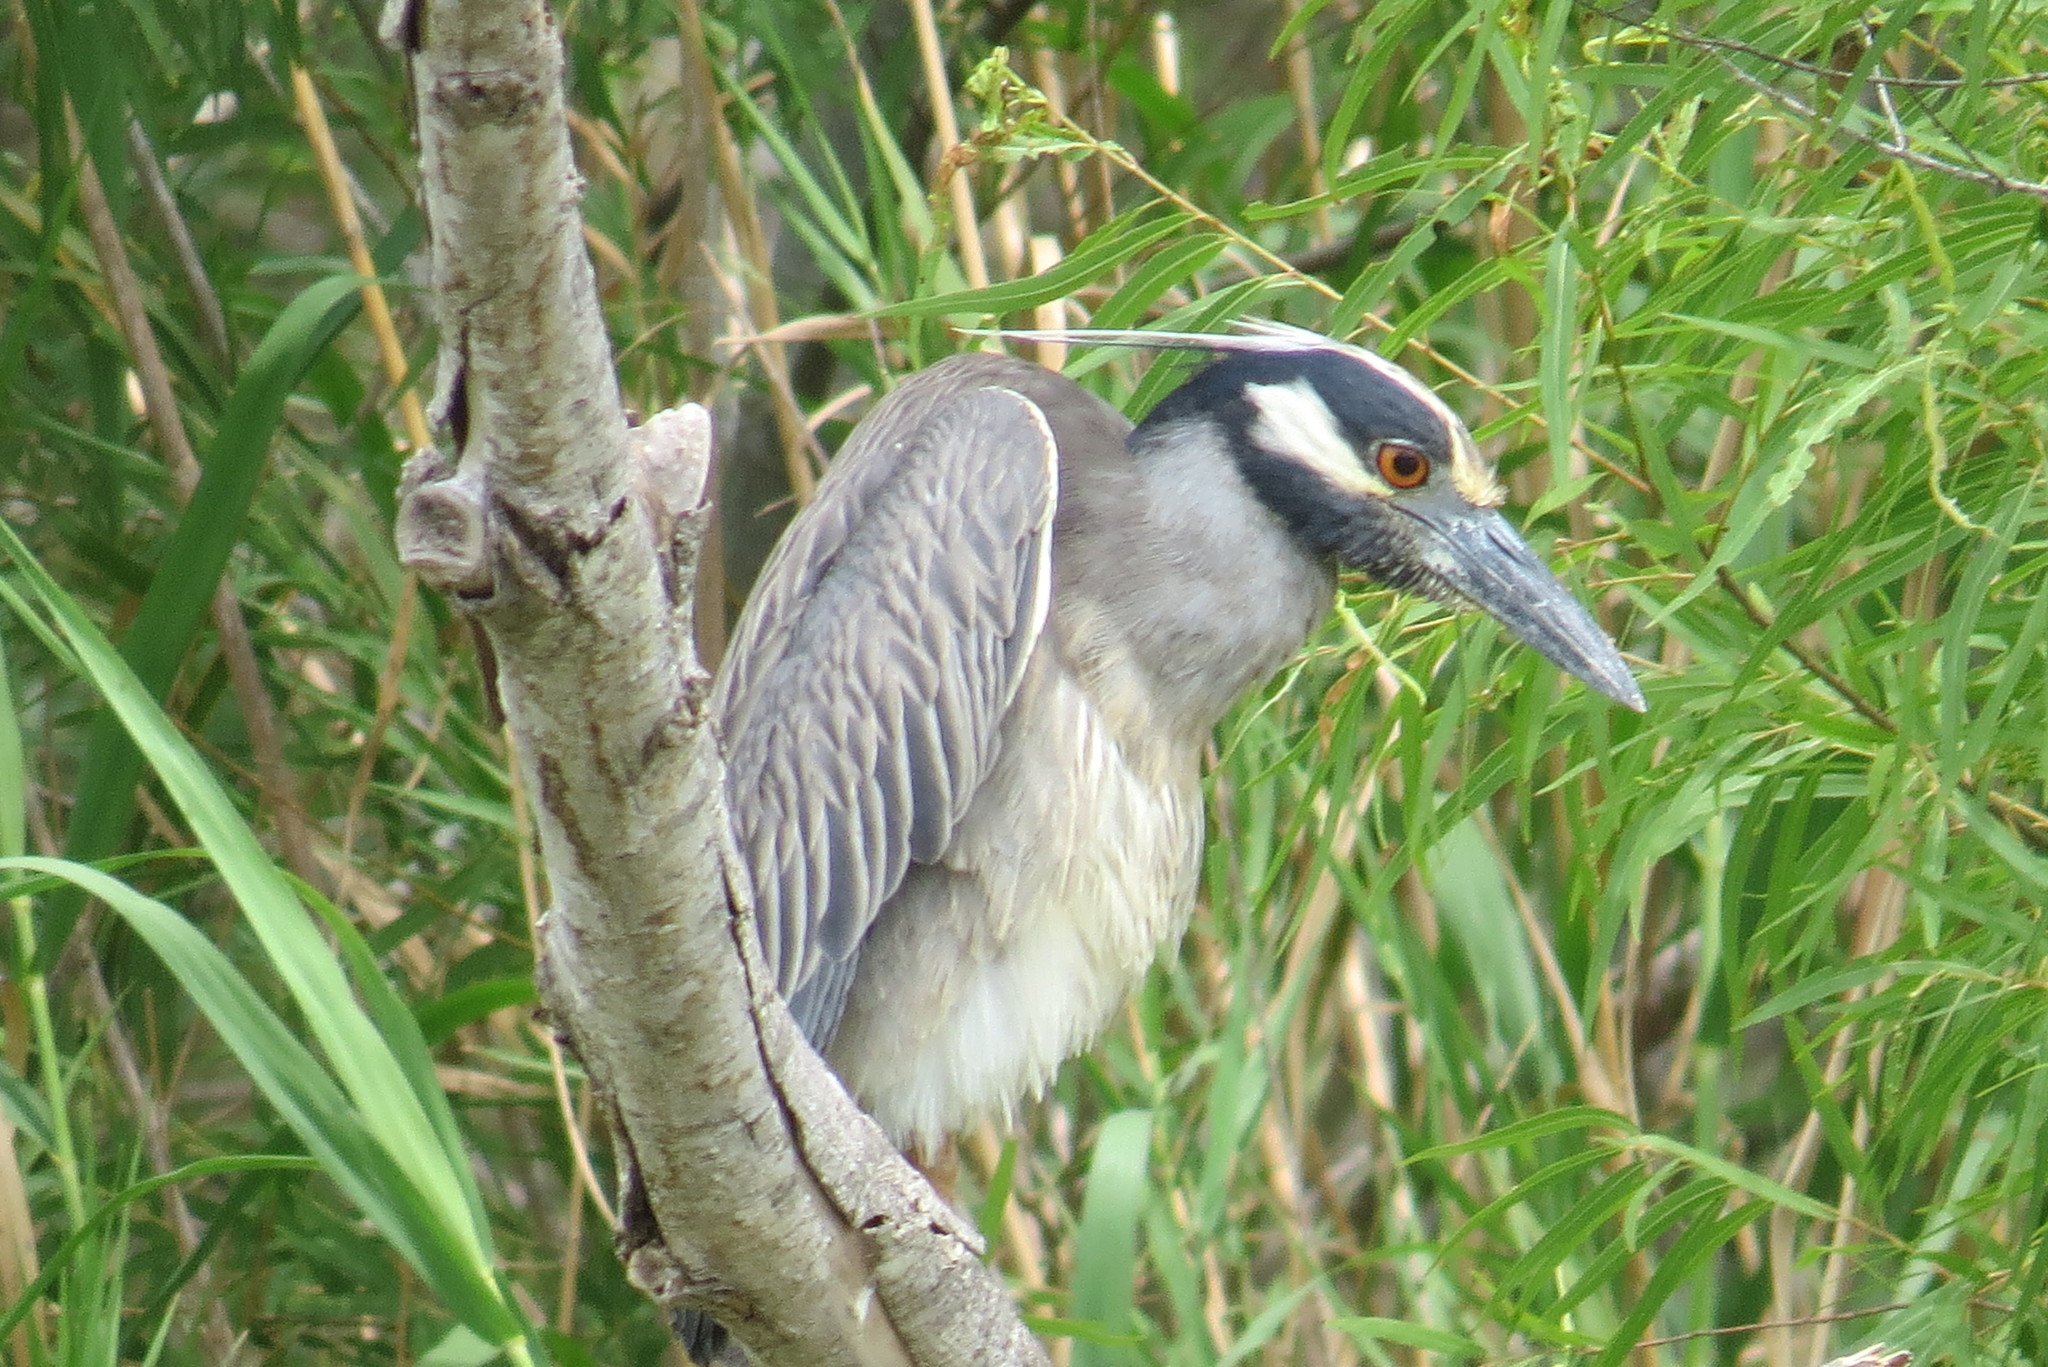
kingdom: Animalia
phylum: Chordata
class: Aves
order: Pelecaniformes
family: Ardeidae
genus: Nyctanassa
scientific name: Nyctanassa violacea
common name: Yellow-crowned night heron
